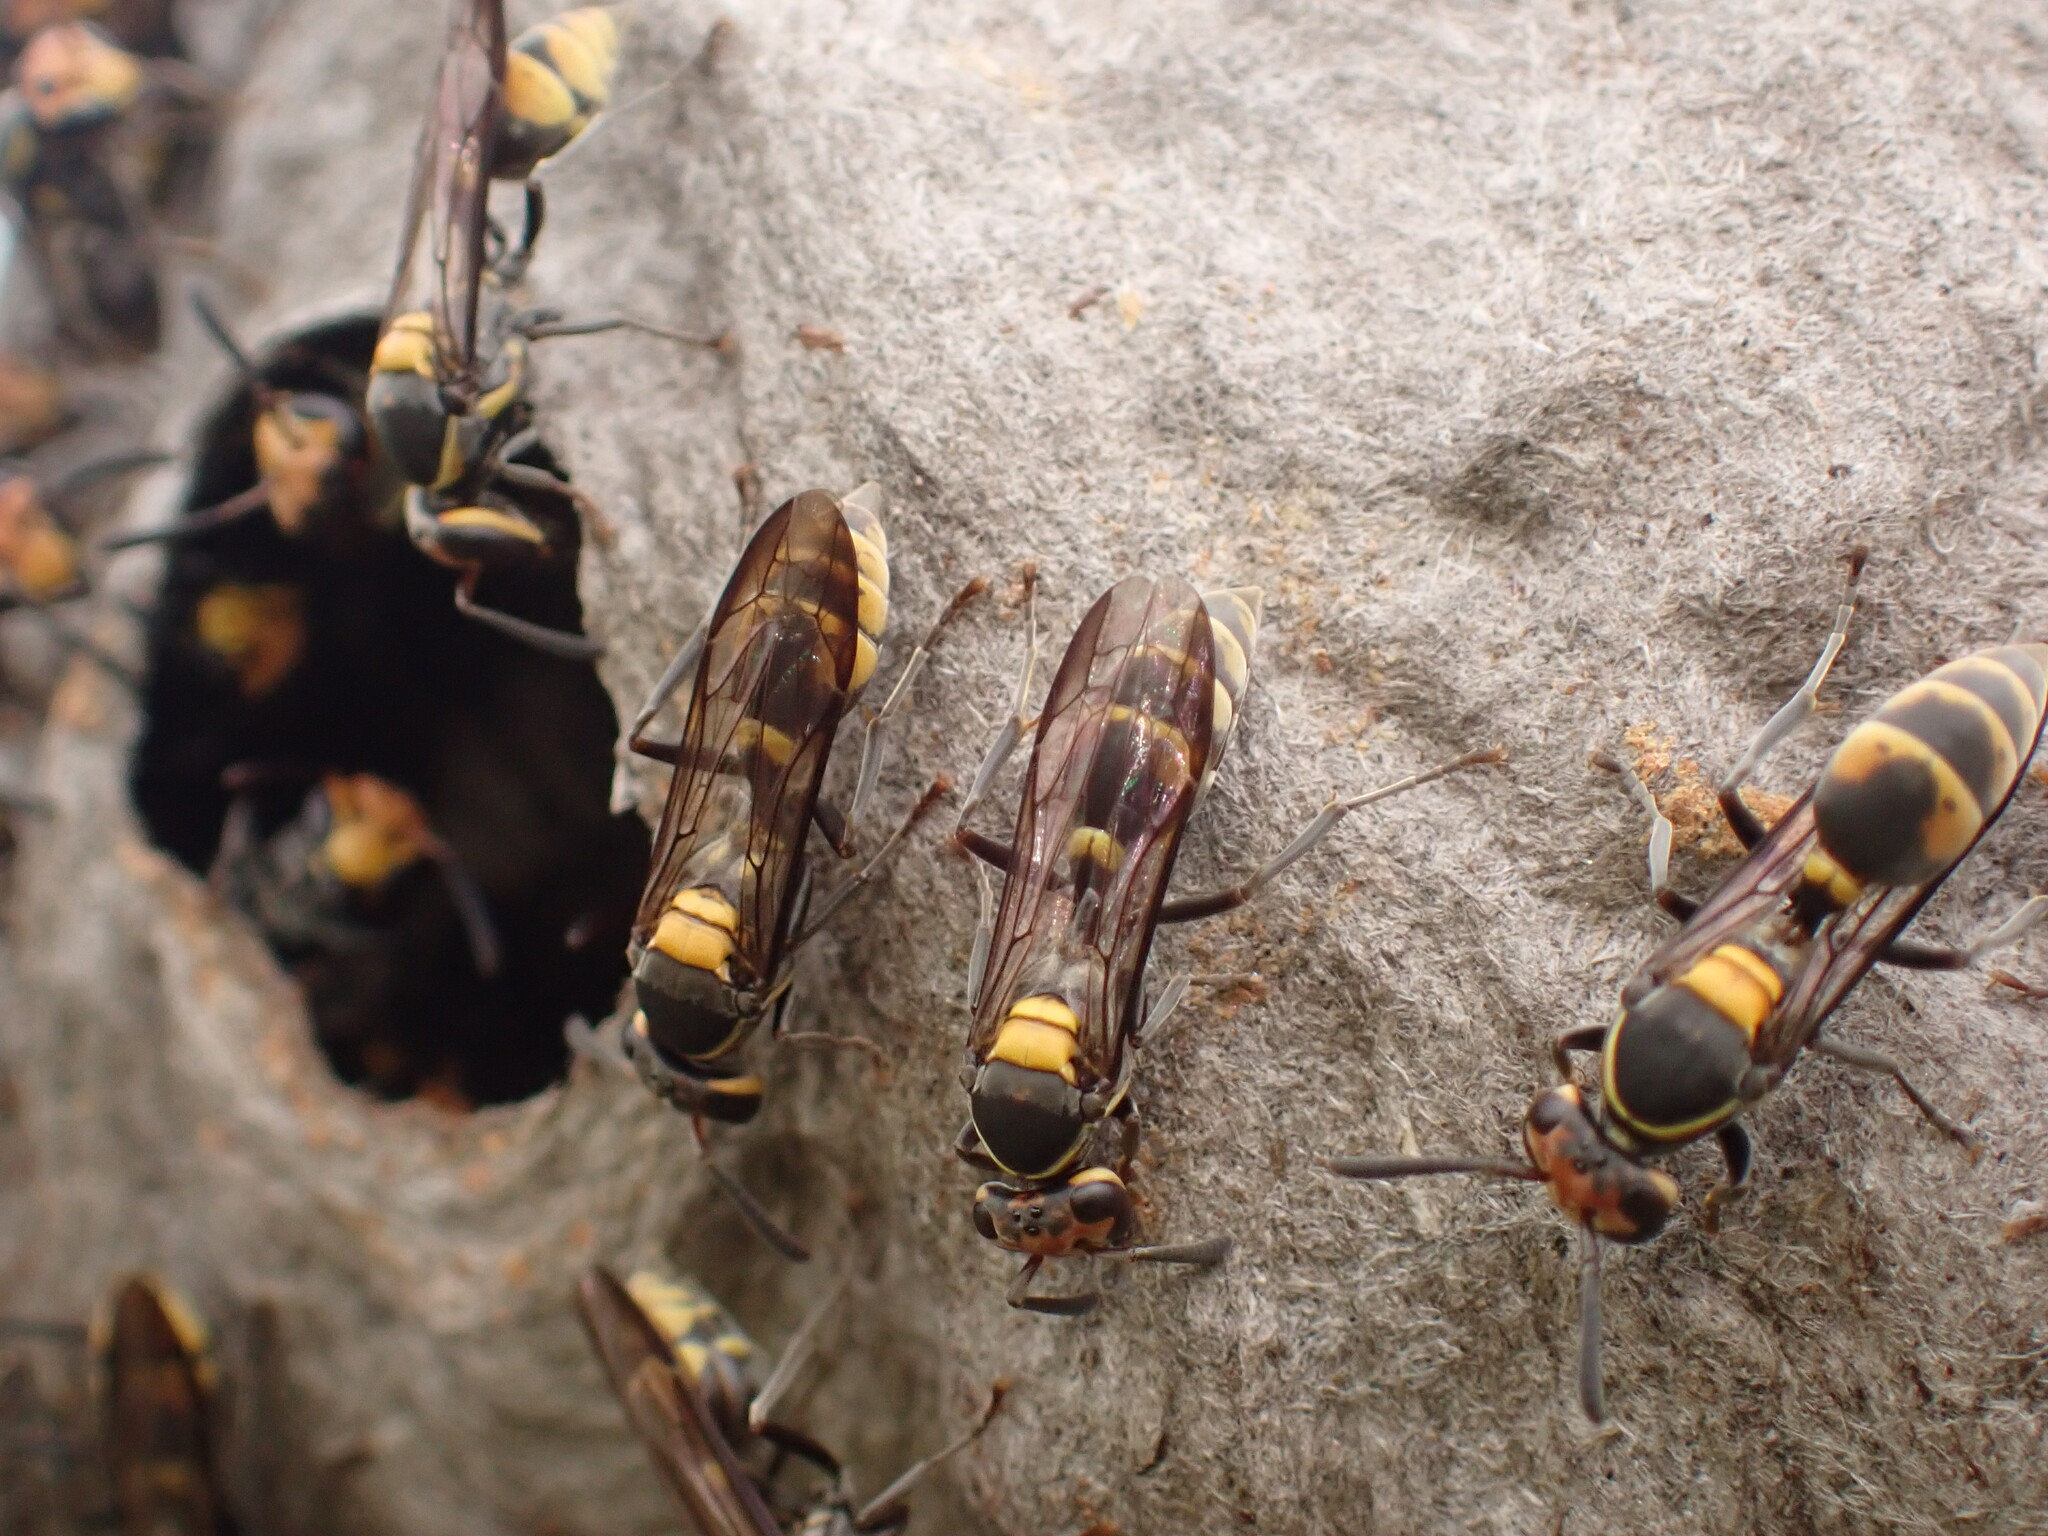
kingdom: Animalia
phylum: Arthropoda
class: Insecta
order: Hymenoptera
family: Eumenidae
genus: Polybia
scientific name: Polybia erythrothoraxla
